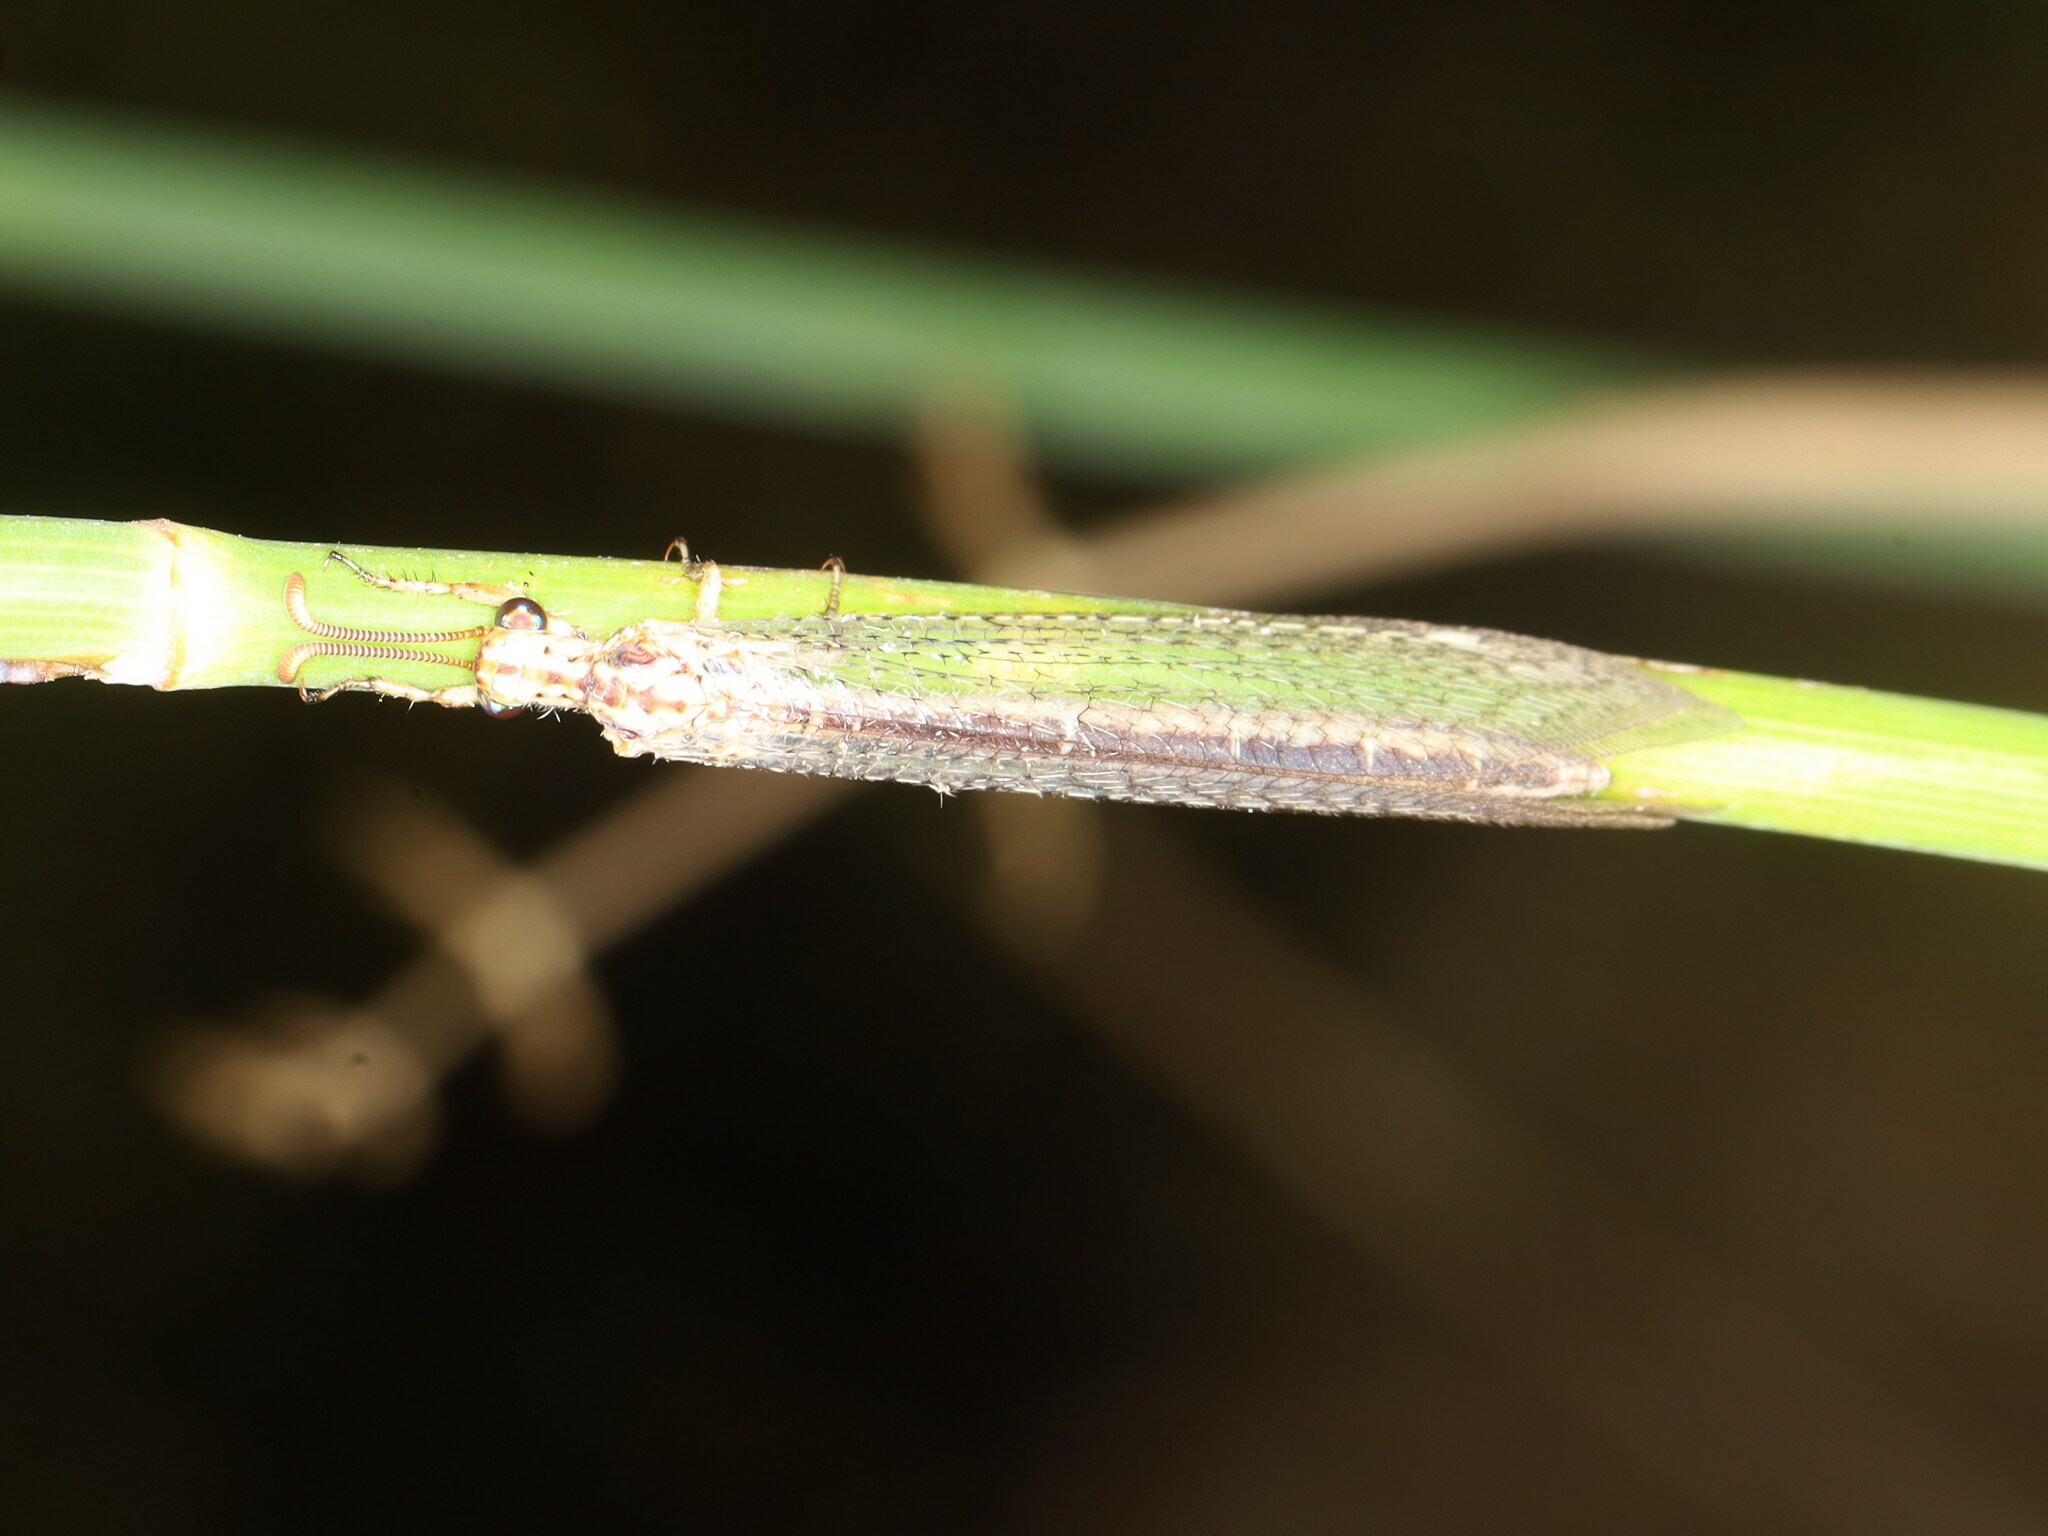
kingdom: Animalia
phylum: Arthropoda
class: Insecta
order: Neuroptera
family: Myrmeleontidae
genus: Macronemurus
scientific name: Macronemurus appendiculatus
